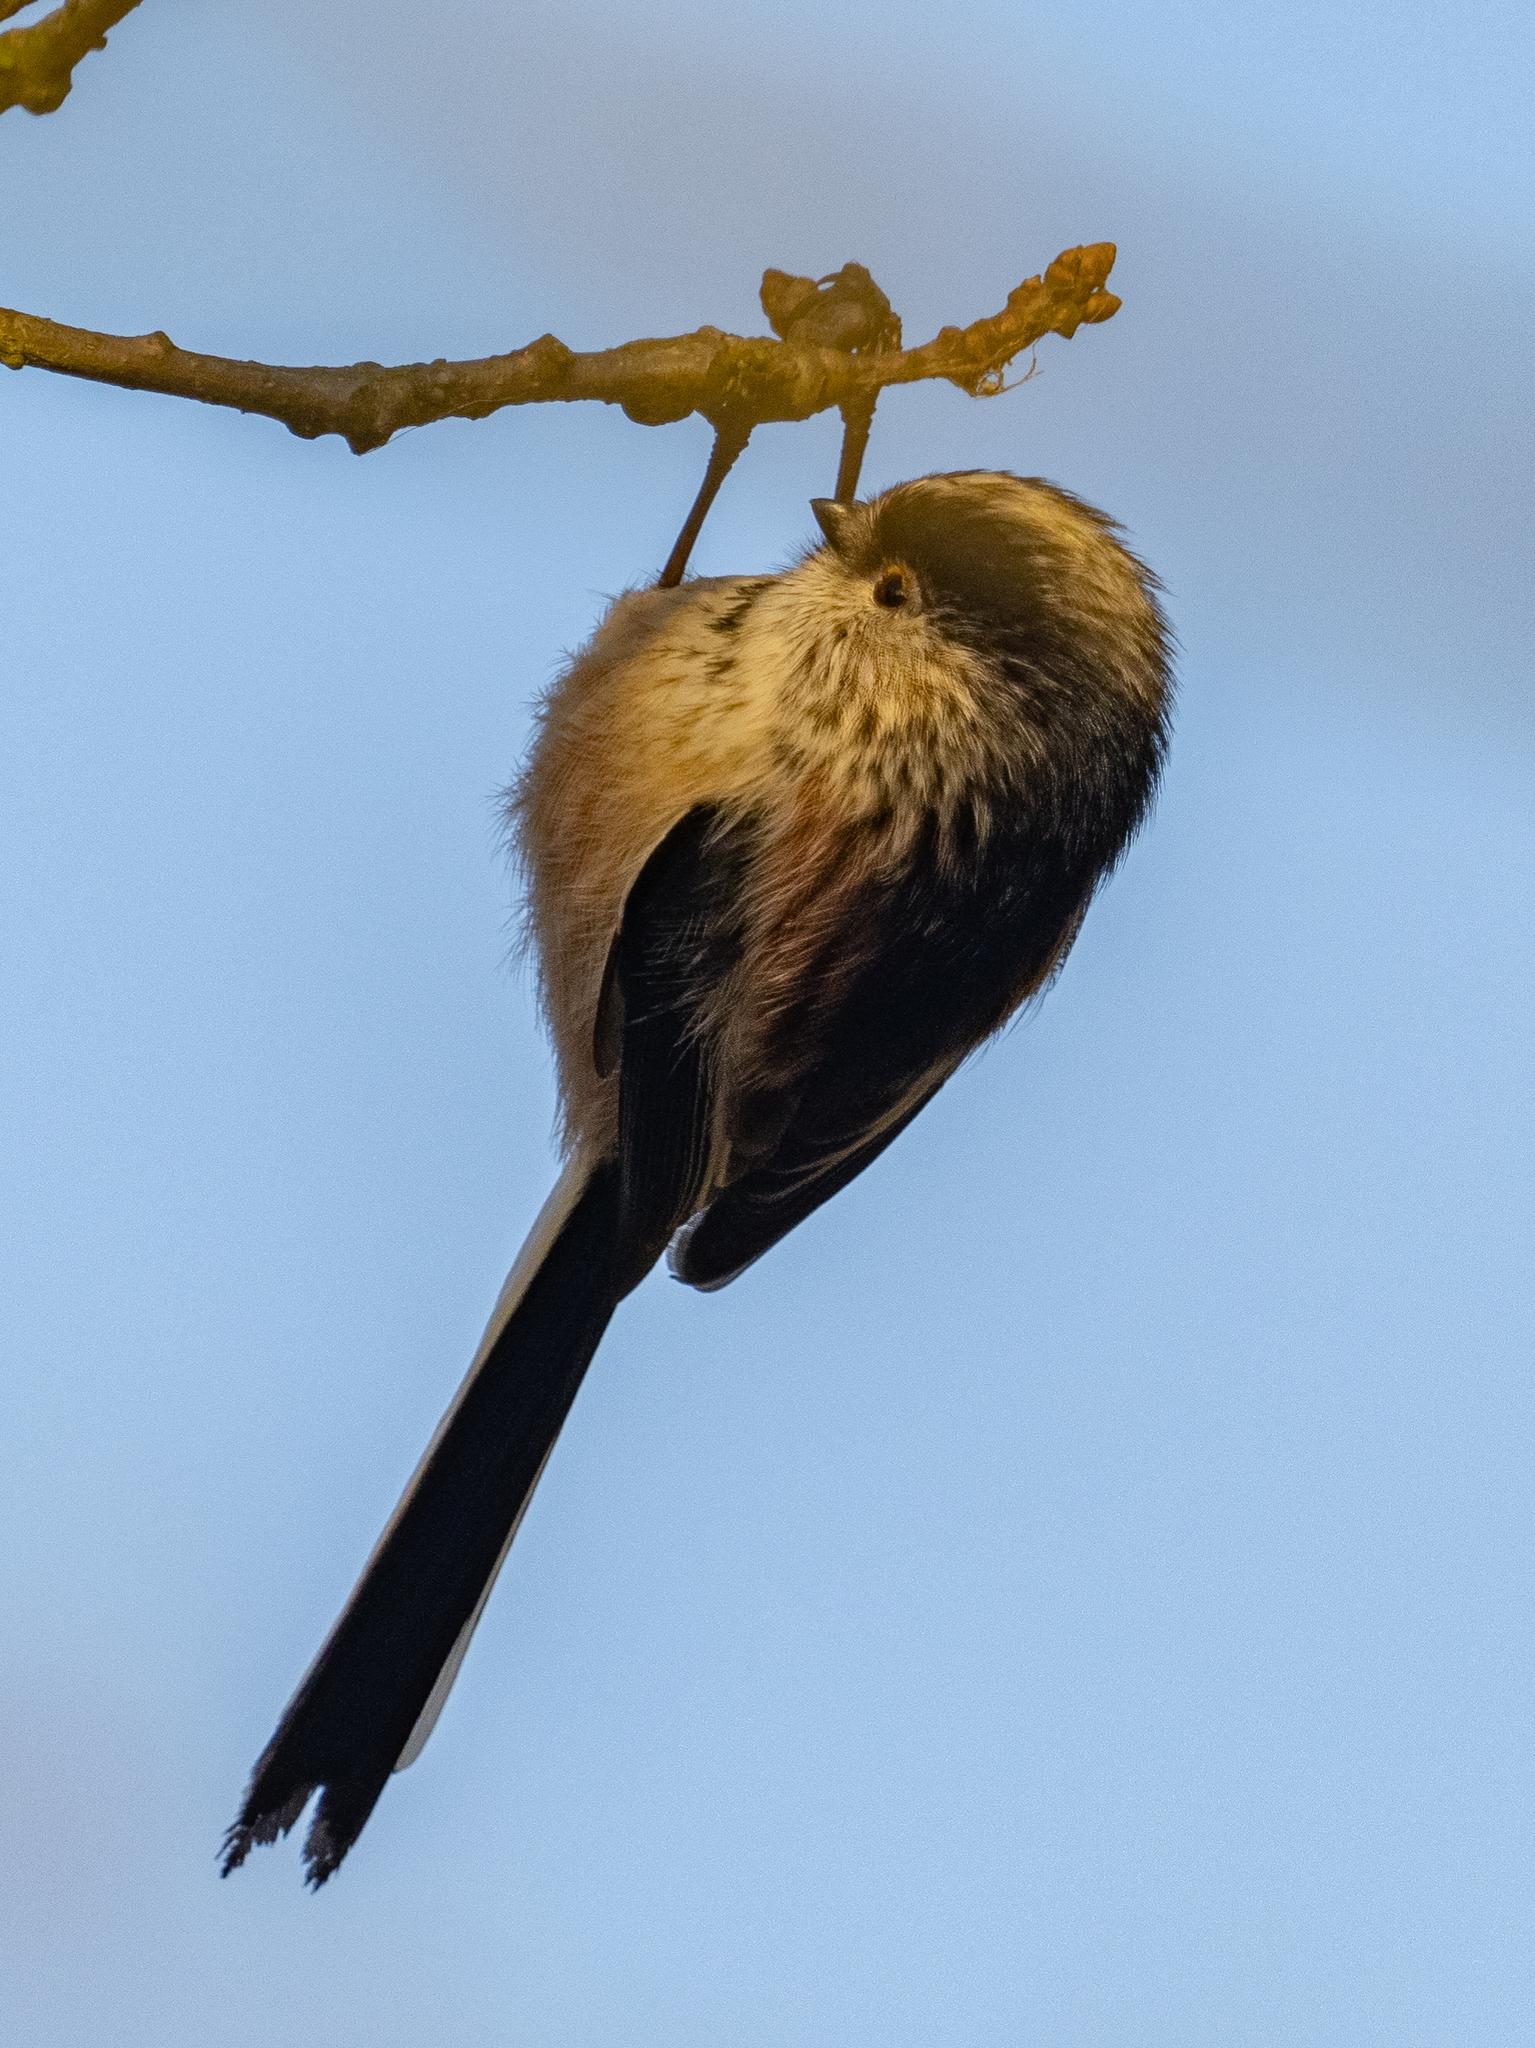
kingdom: Animalia
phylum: Chordata
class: Aves
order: Passeriformes
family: Aegithalidae
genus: Aegithalos
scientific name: Aegithalos caudatus
